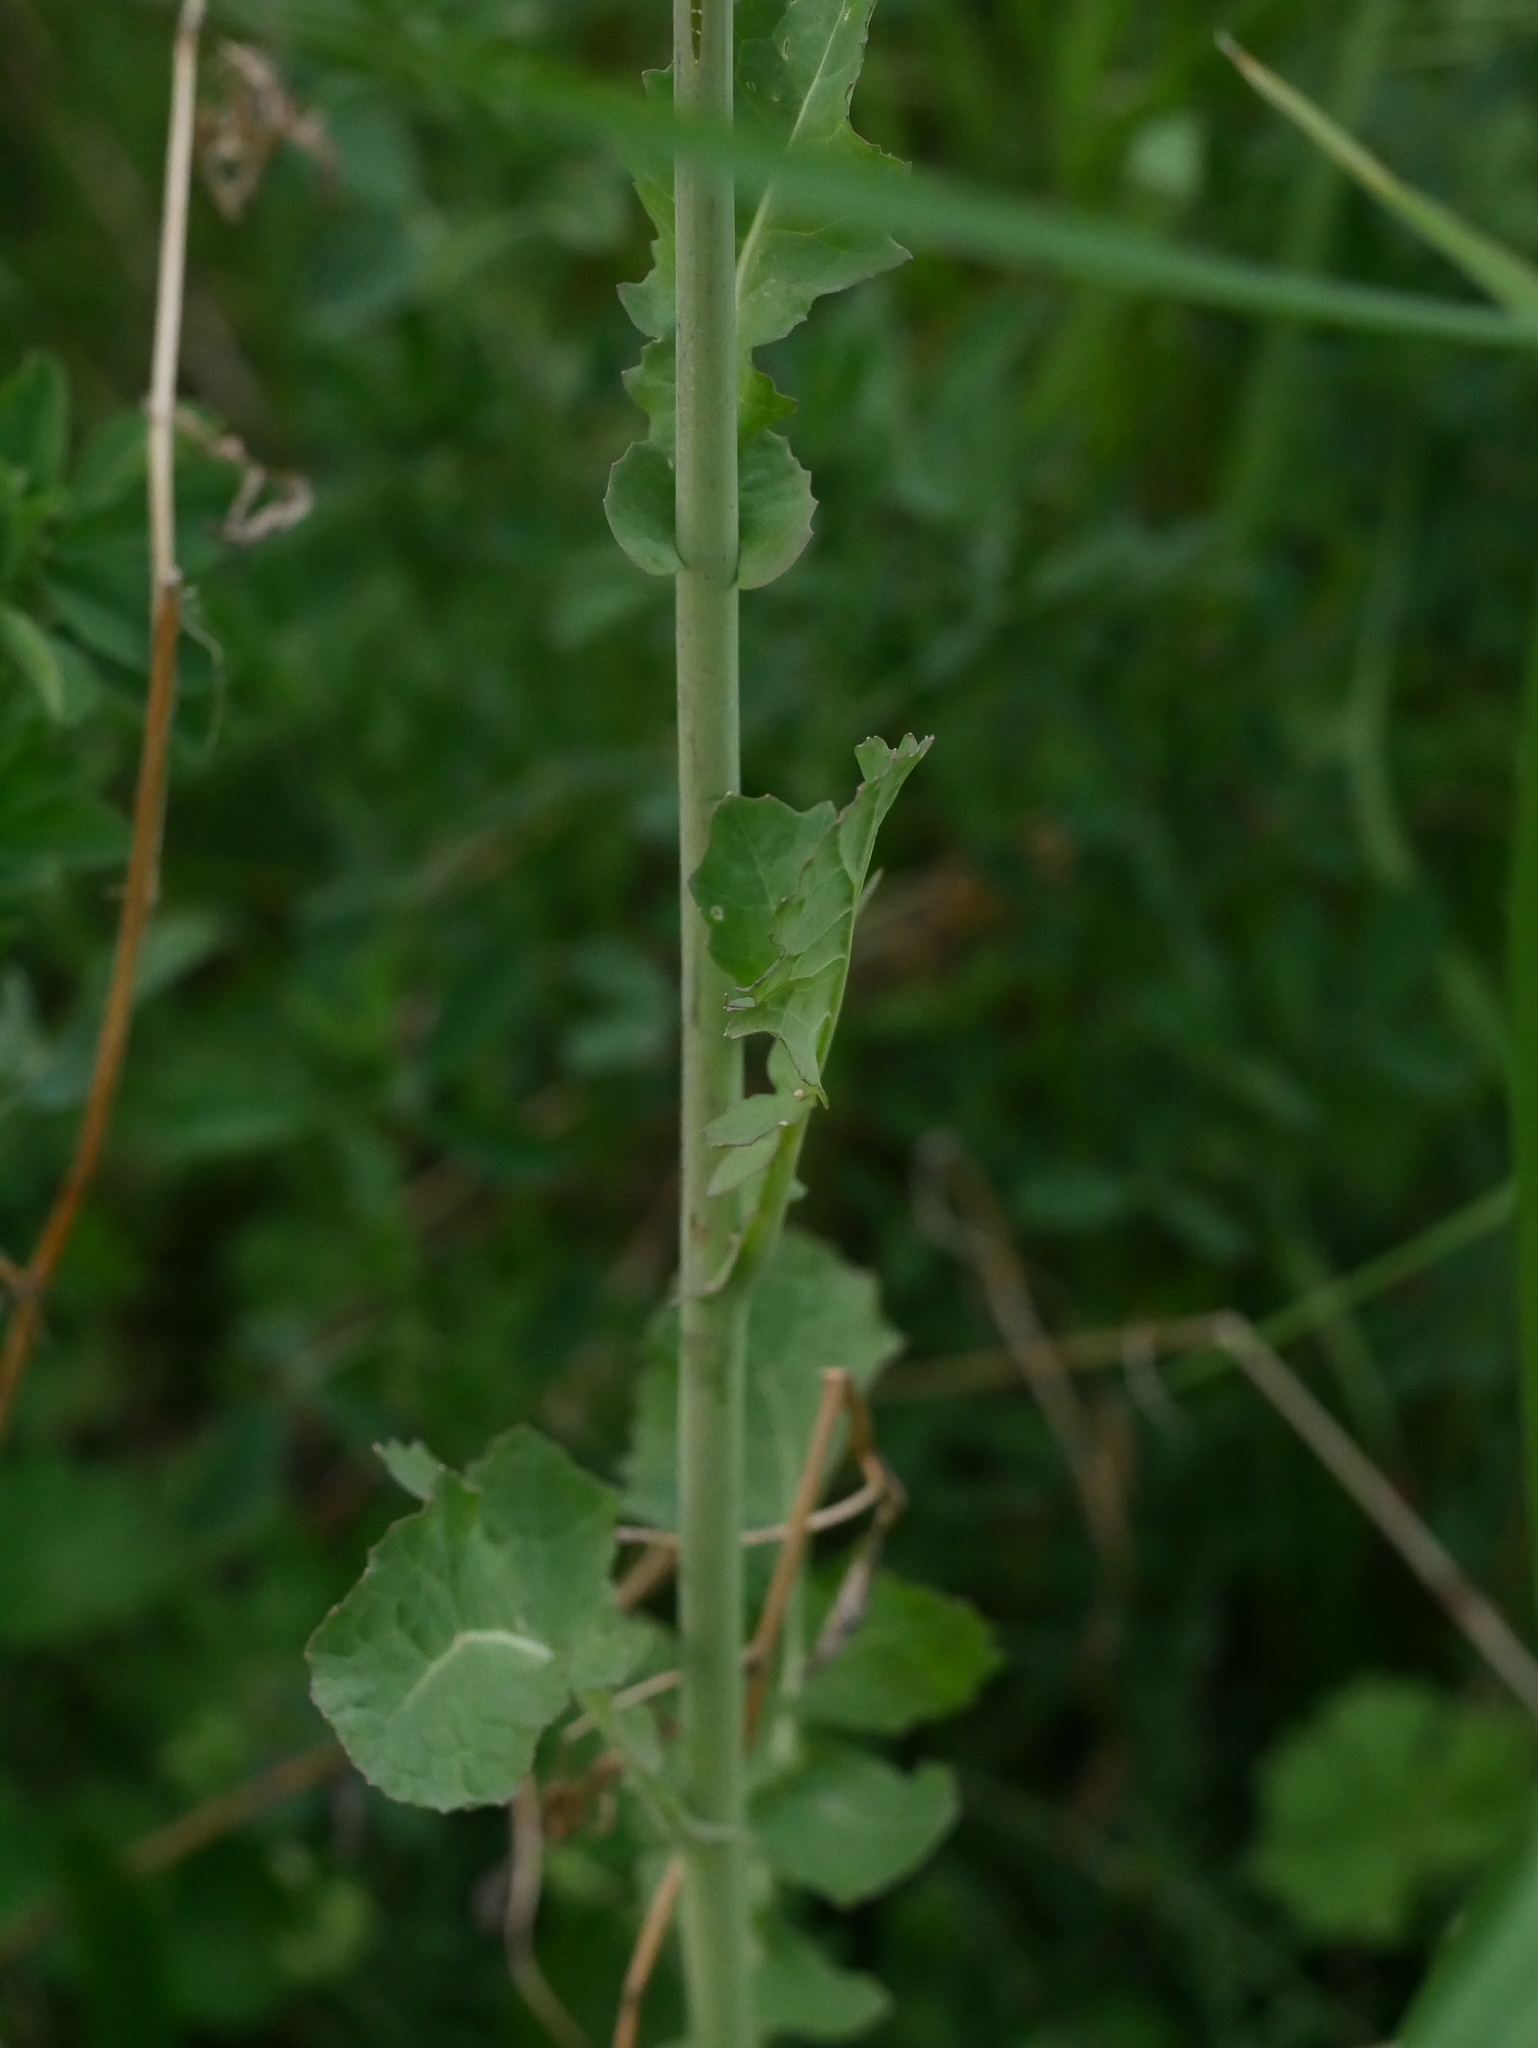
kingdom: Plantae
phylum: Tracheophyta
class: Magnoliopsida
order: Brassicales
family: Brassicaceae
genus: Brassica
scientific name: Brassica napus
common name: Rape
